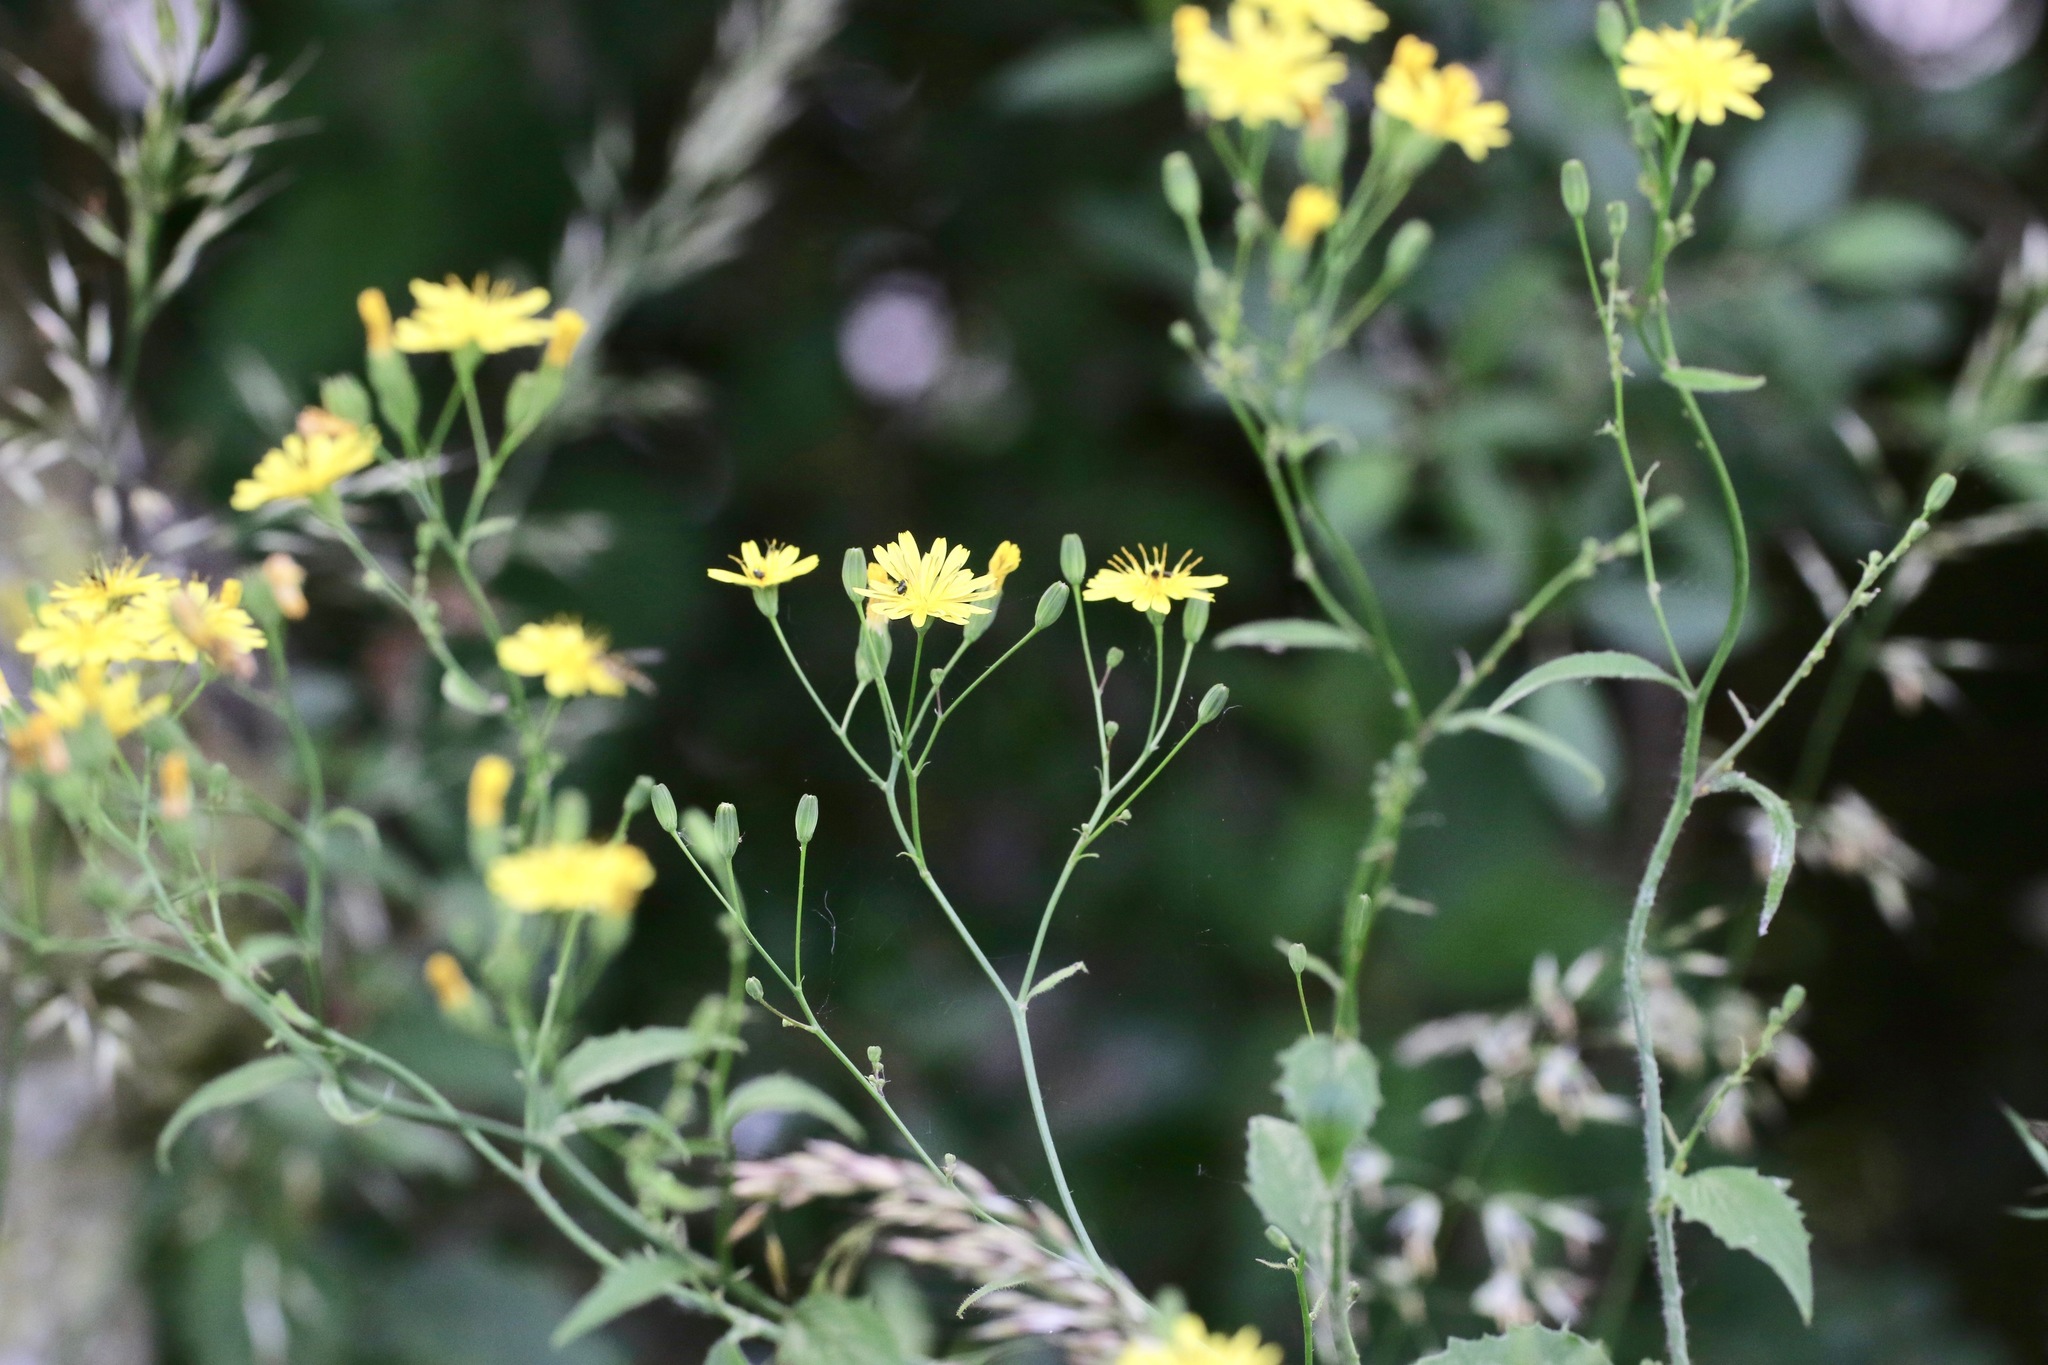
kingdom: Plantae
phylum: Tracheophyta
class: Magnoliopsida
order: Asterales
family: Asteraceae
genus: Lapsana
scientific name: Lapsana communis
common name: Nipplewort
